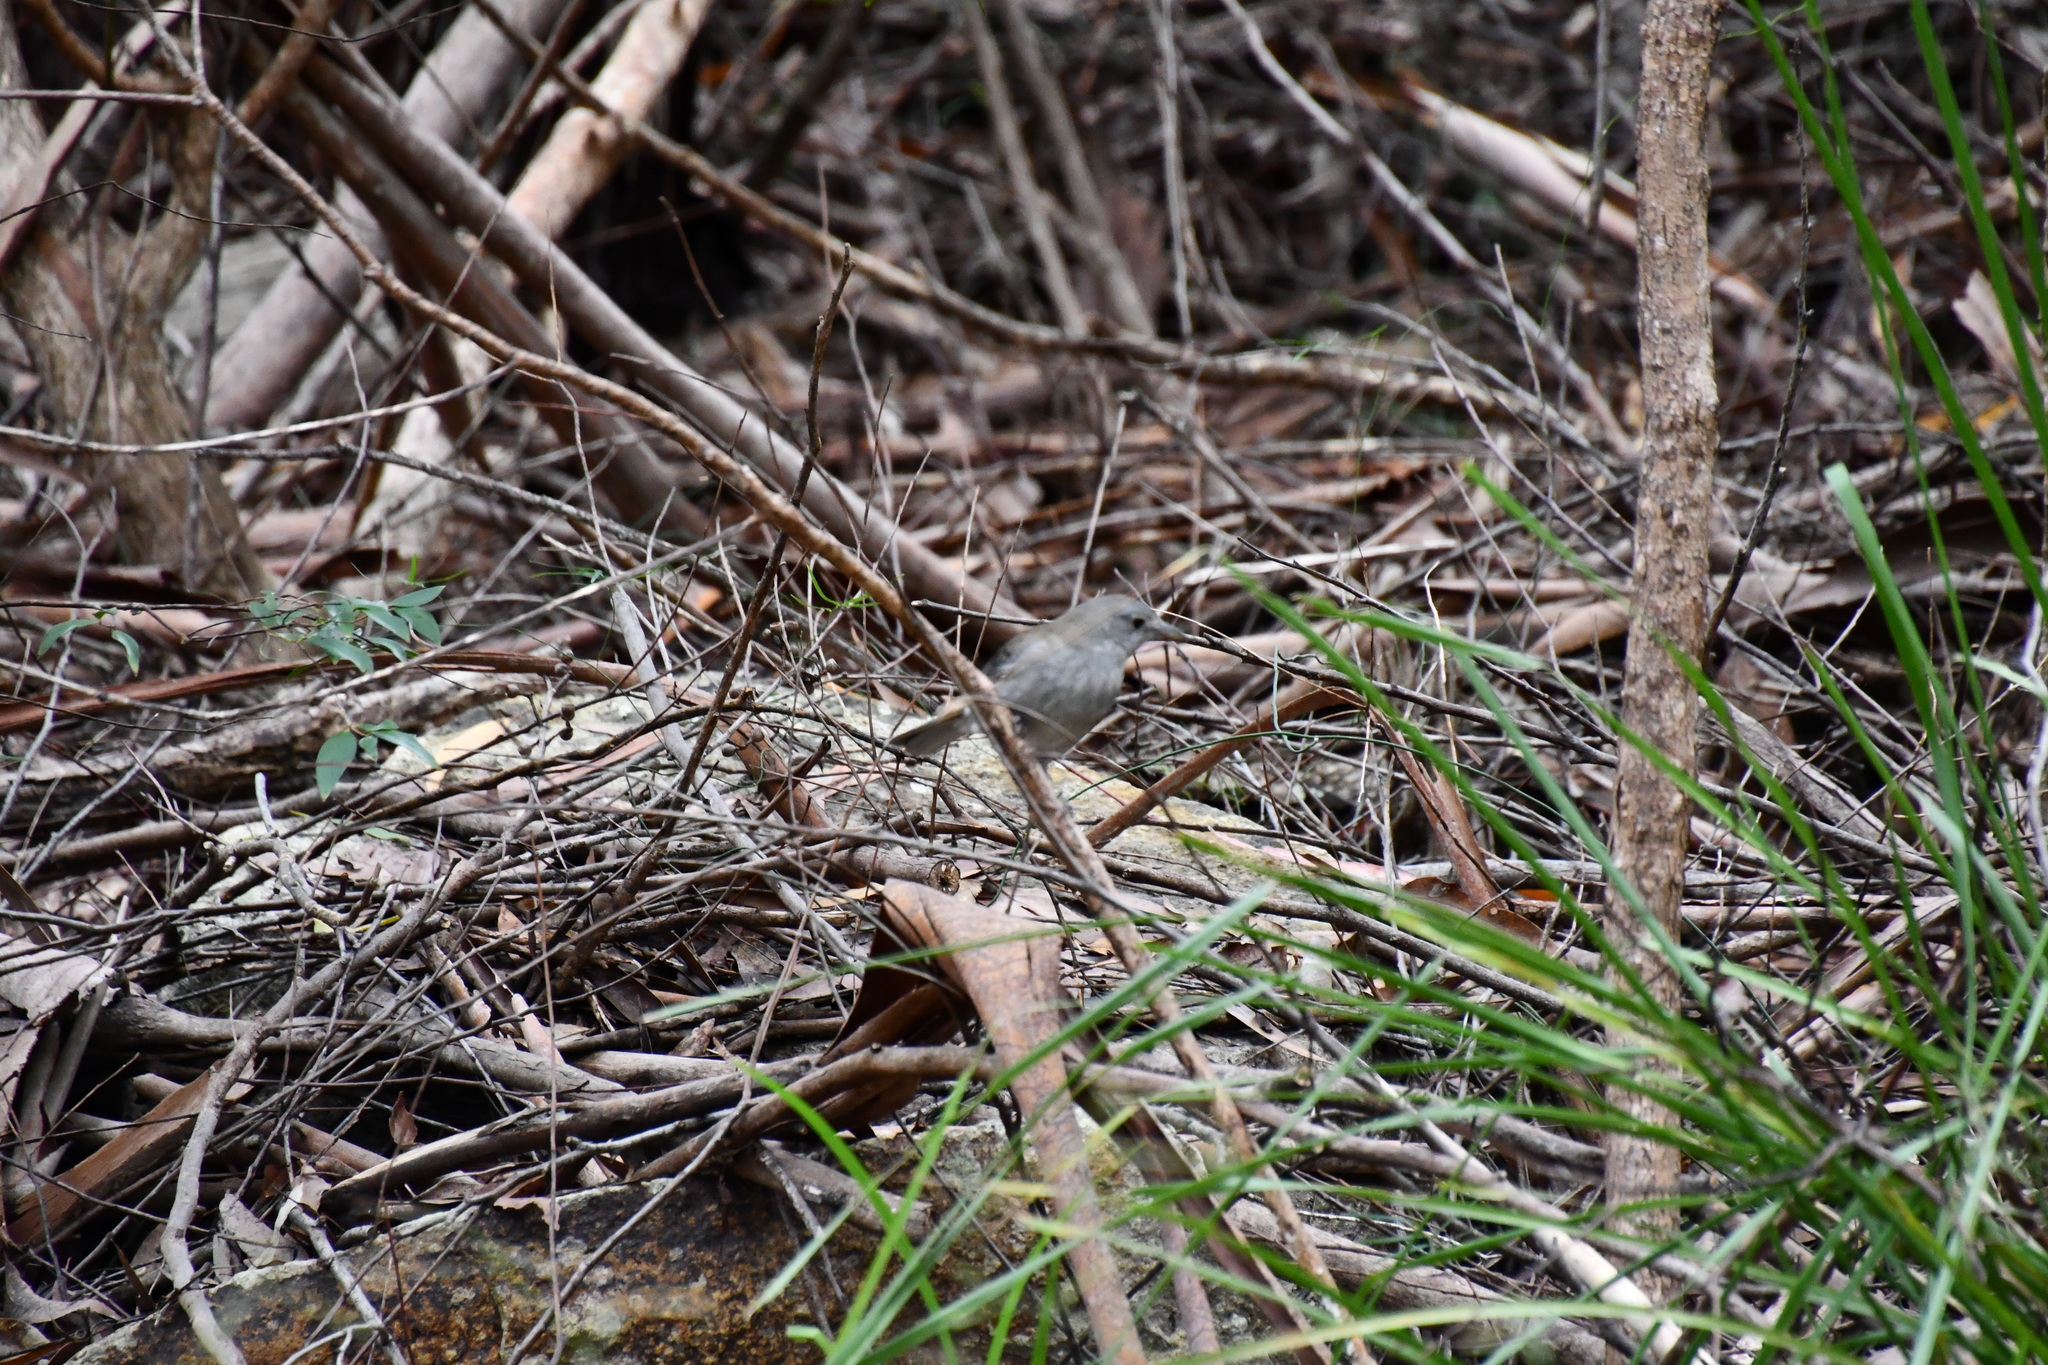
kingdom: Animalia
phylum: Chordata
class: Aves
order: Passeriformes
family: Pachycephalidae
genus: Colluricincla
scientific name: Colluricincla harmonica
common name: Grey shrikethrush
